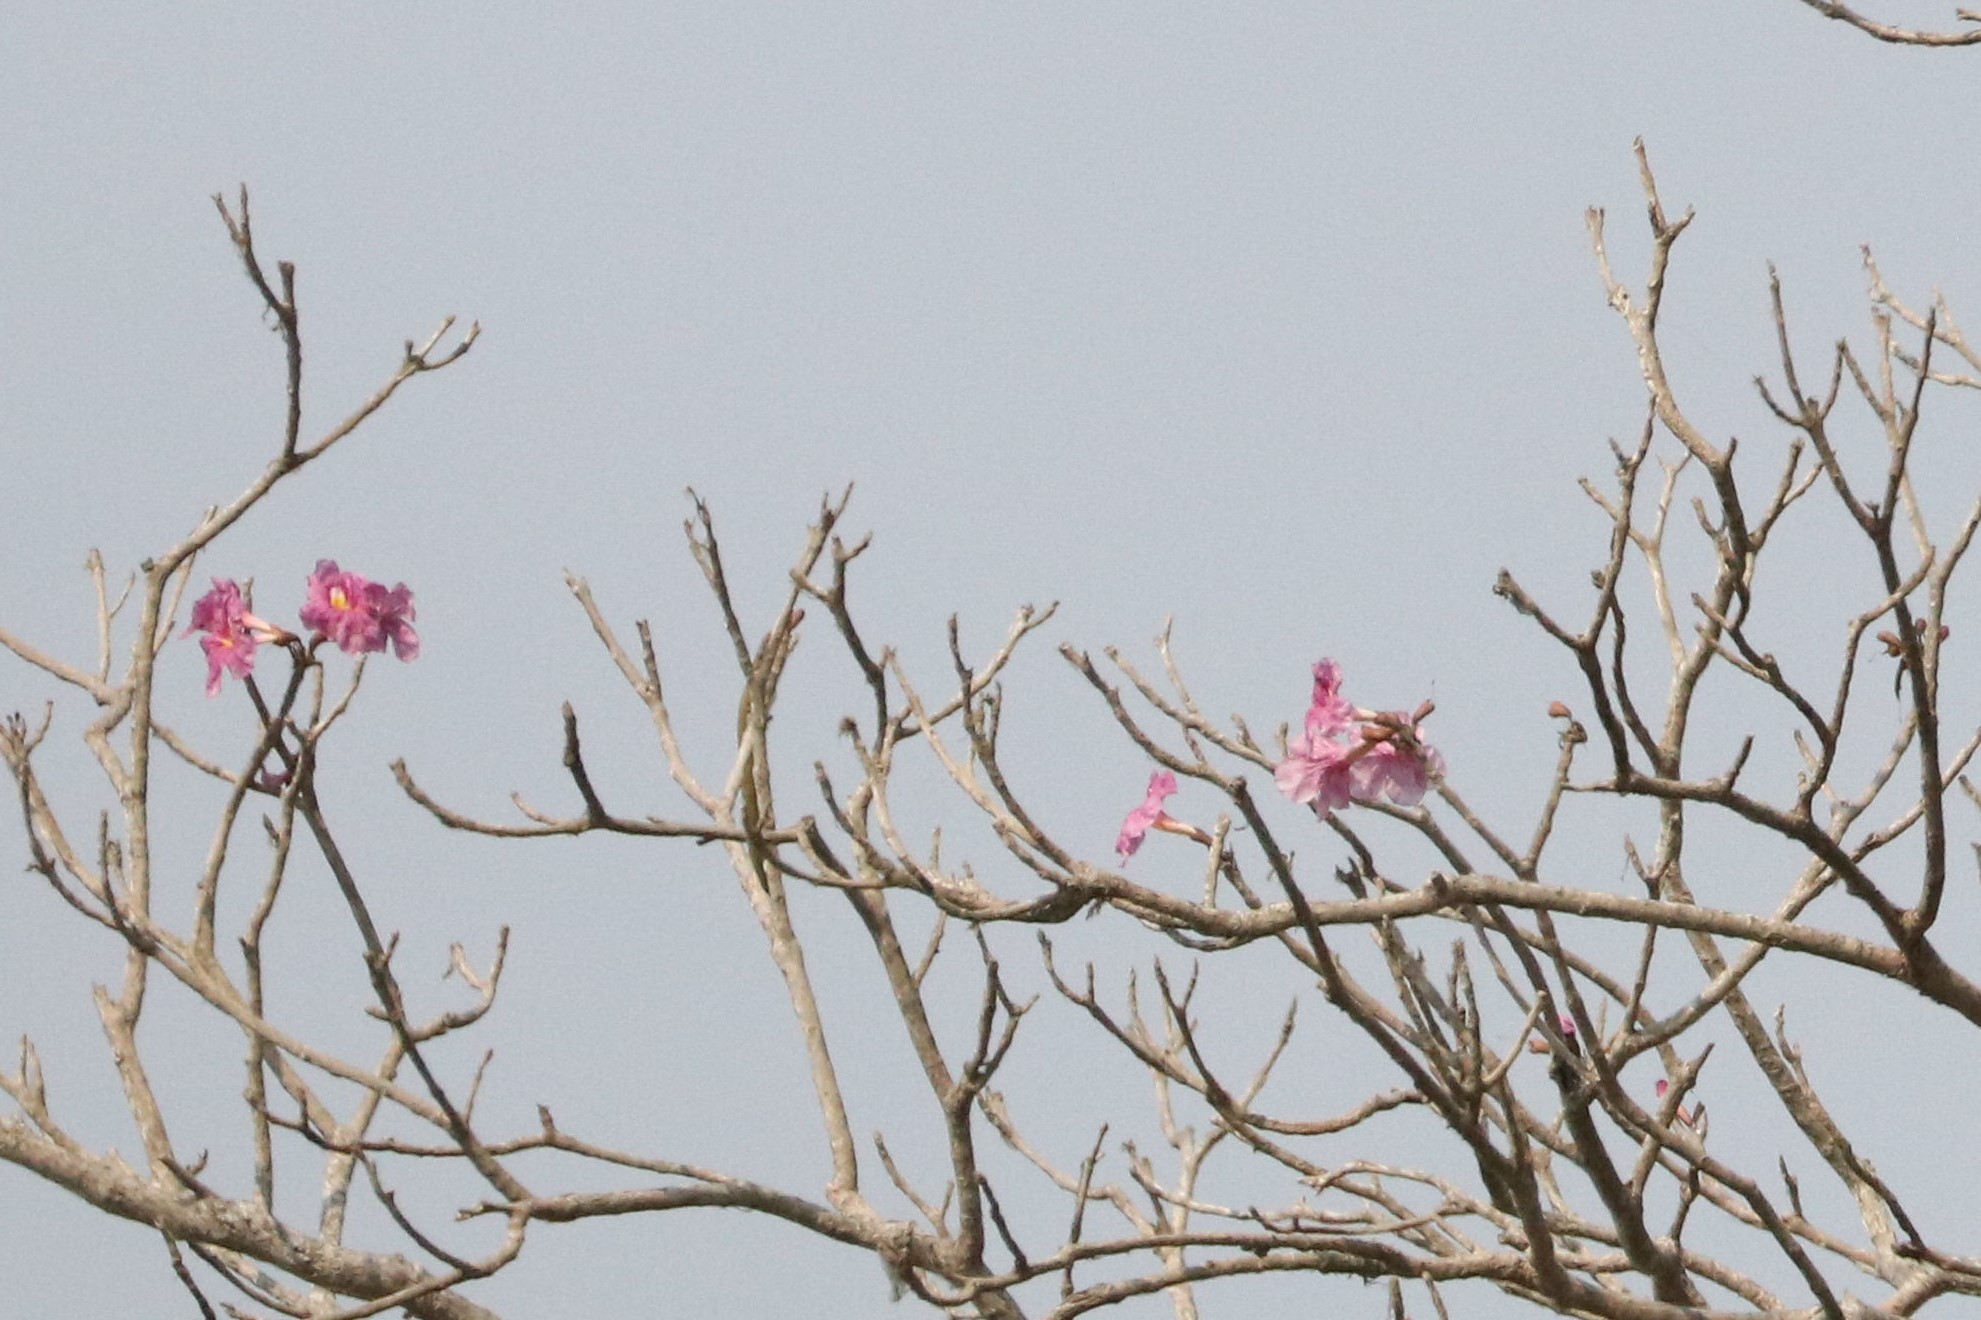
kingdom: Plantae
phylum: Tracheophyta
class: Magnoliopsida
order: Lamiales
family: Bignoniaceae
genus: Tabebuia
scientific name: Tabebuia rosea
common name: Pink poui
